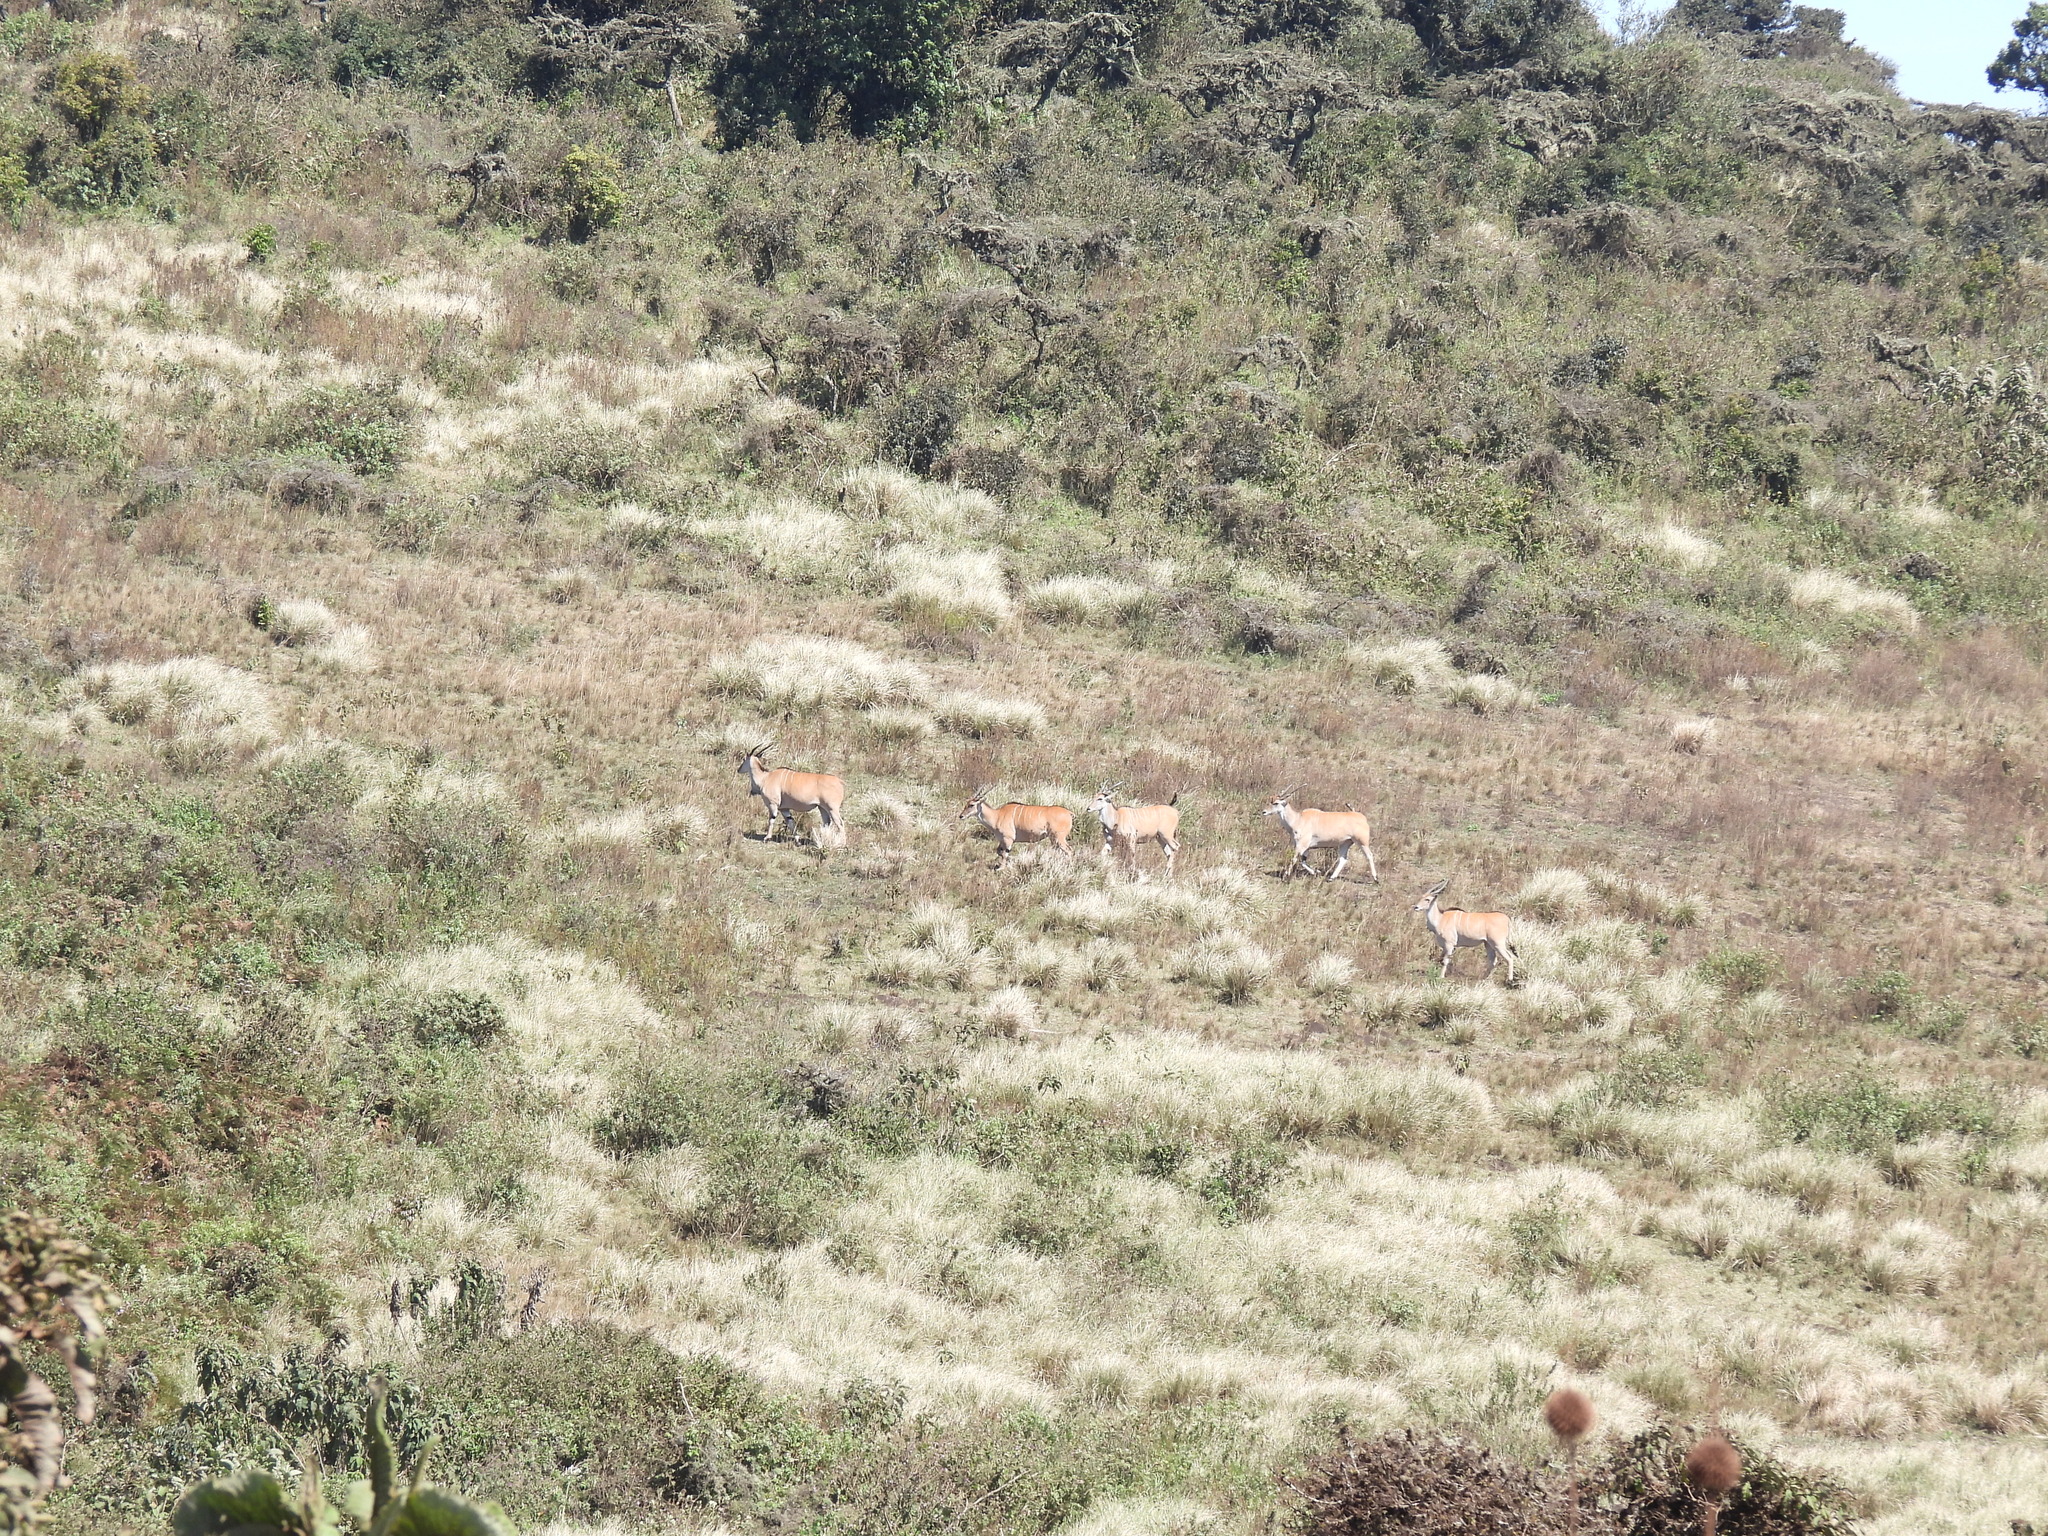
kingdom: Animalia
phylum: Chordata
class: Mammalia
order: Artiodactyla
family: Bovidae
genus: Taurotragus
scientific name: Taurotragus oryx
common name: Common eland
